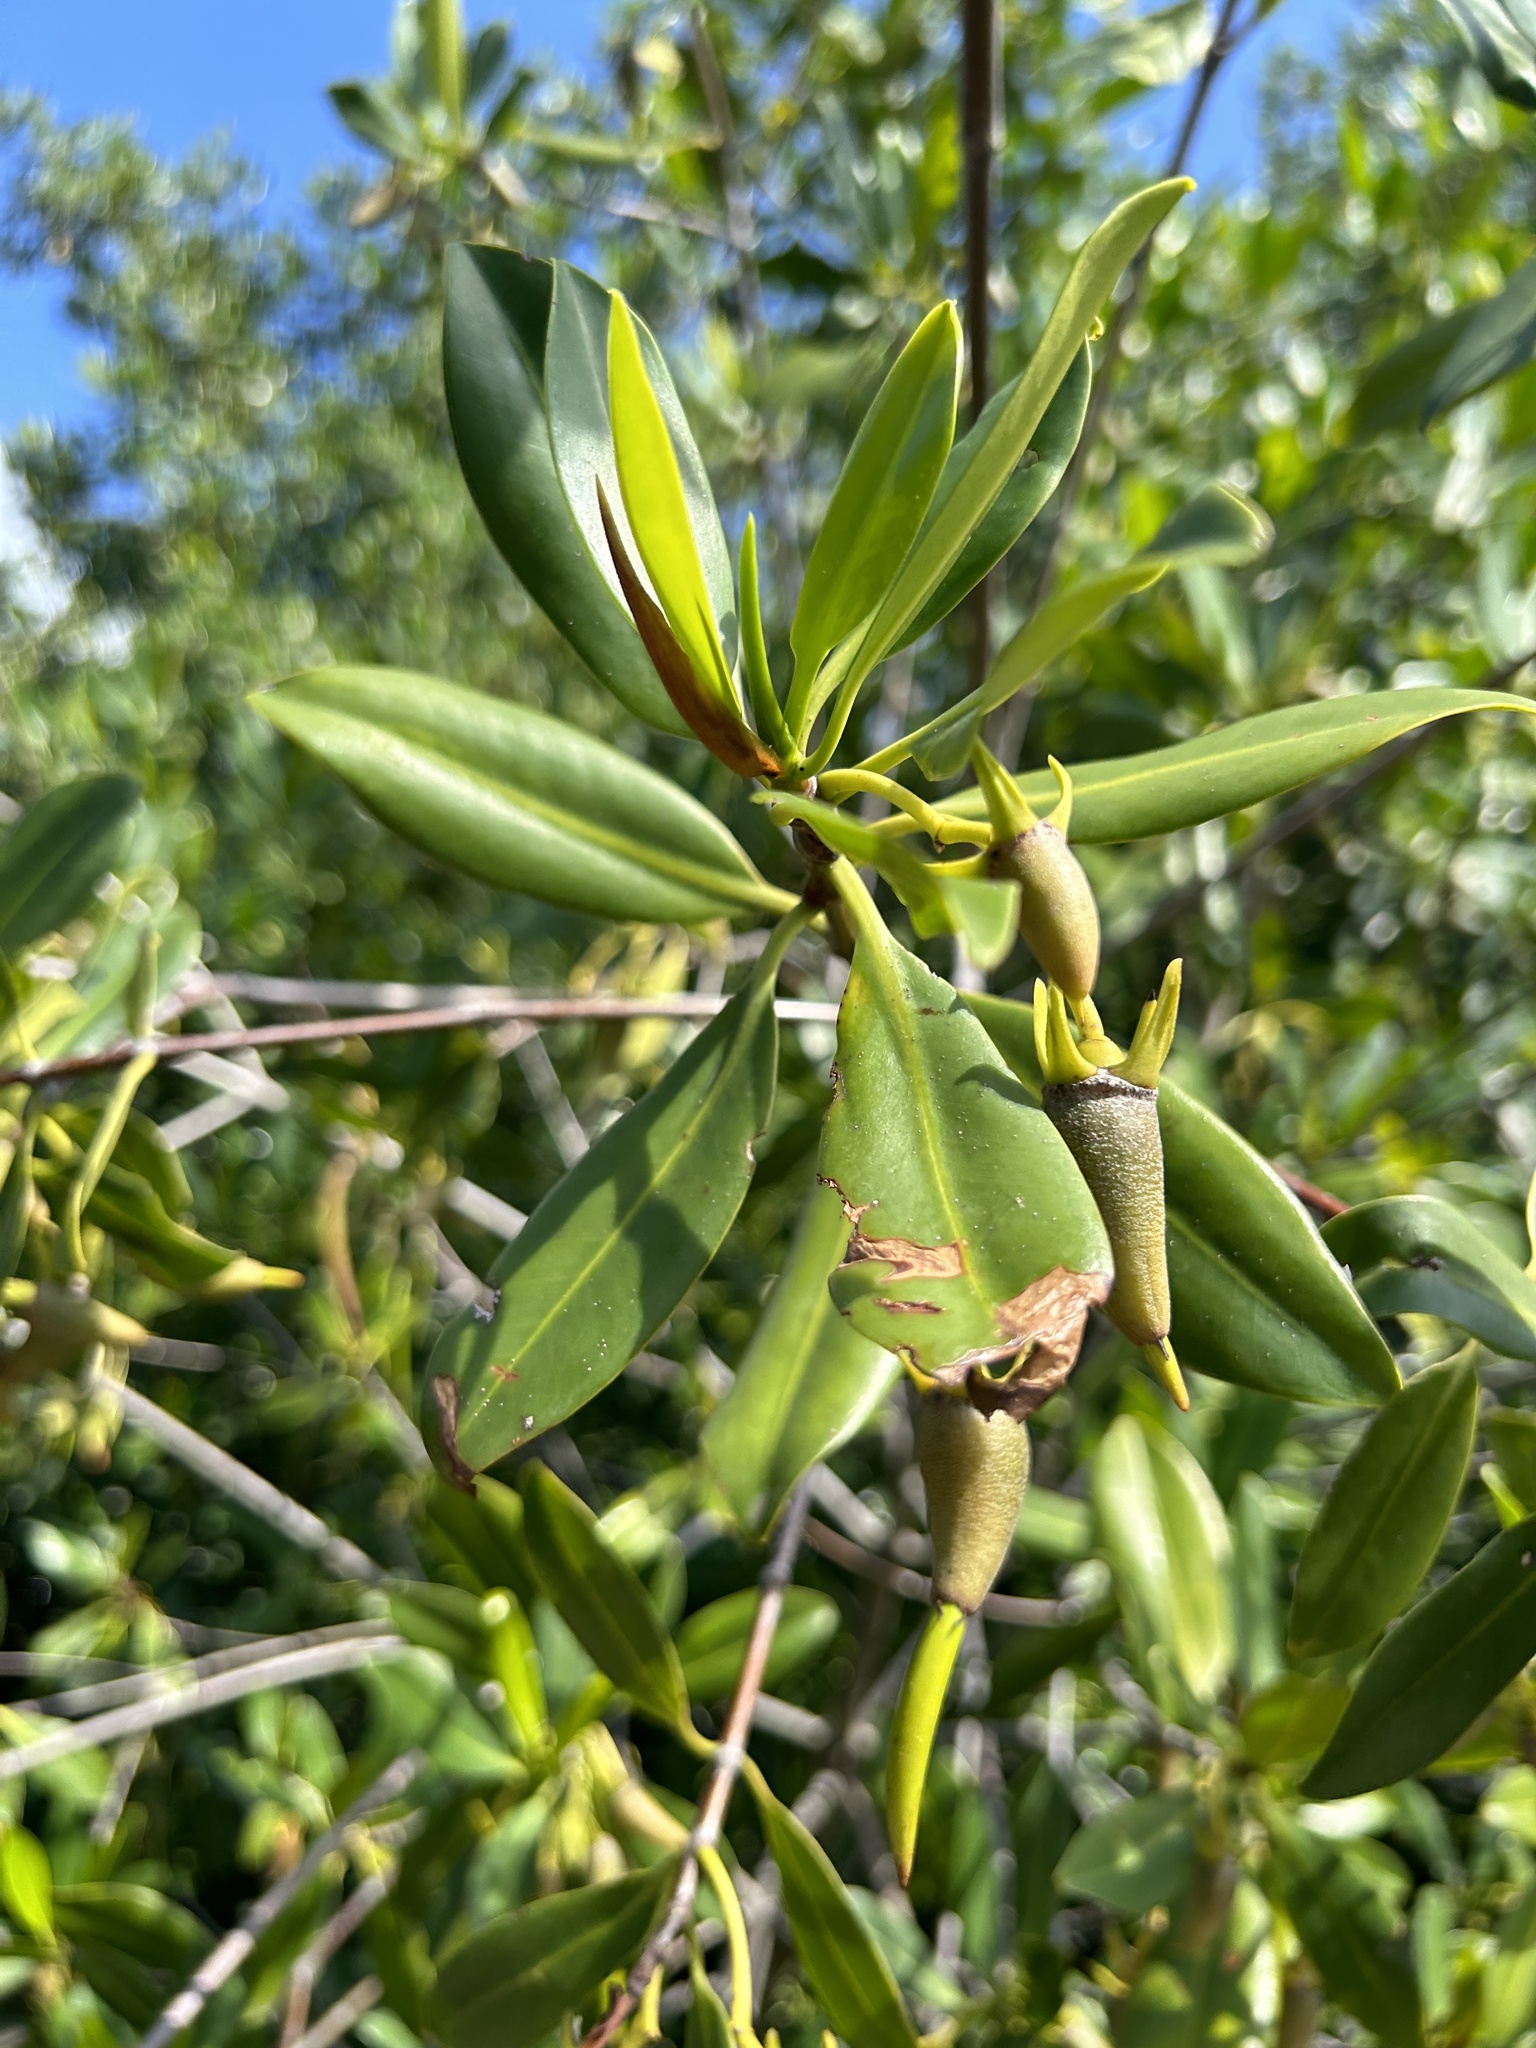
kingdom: Plantae
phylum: Tracheophyta
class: Magnoliopsida
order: Malpighiales
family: Rhizophoraceae
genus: Rhizophora
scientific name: Rhizophora mangle
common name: Red mangrove
